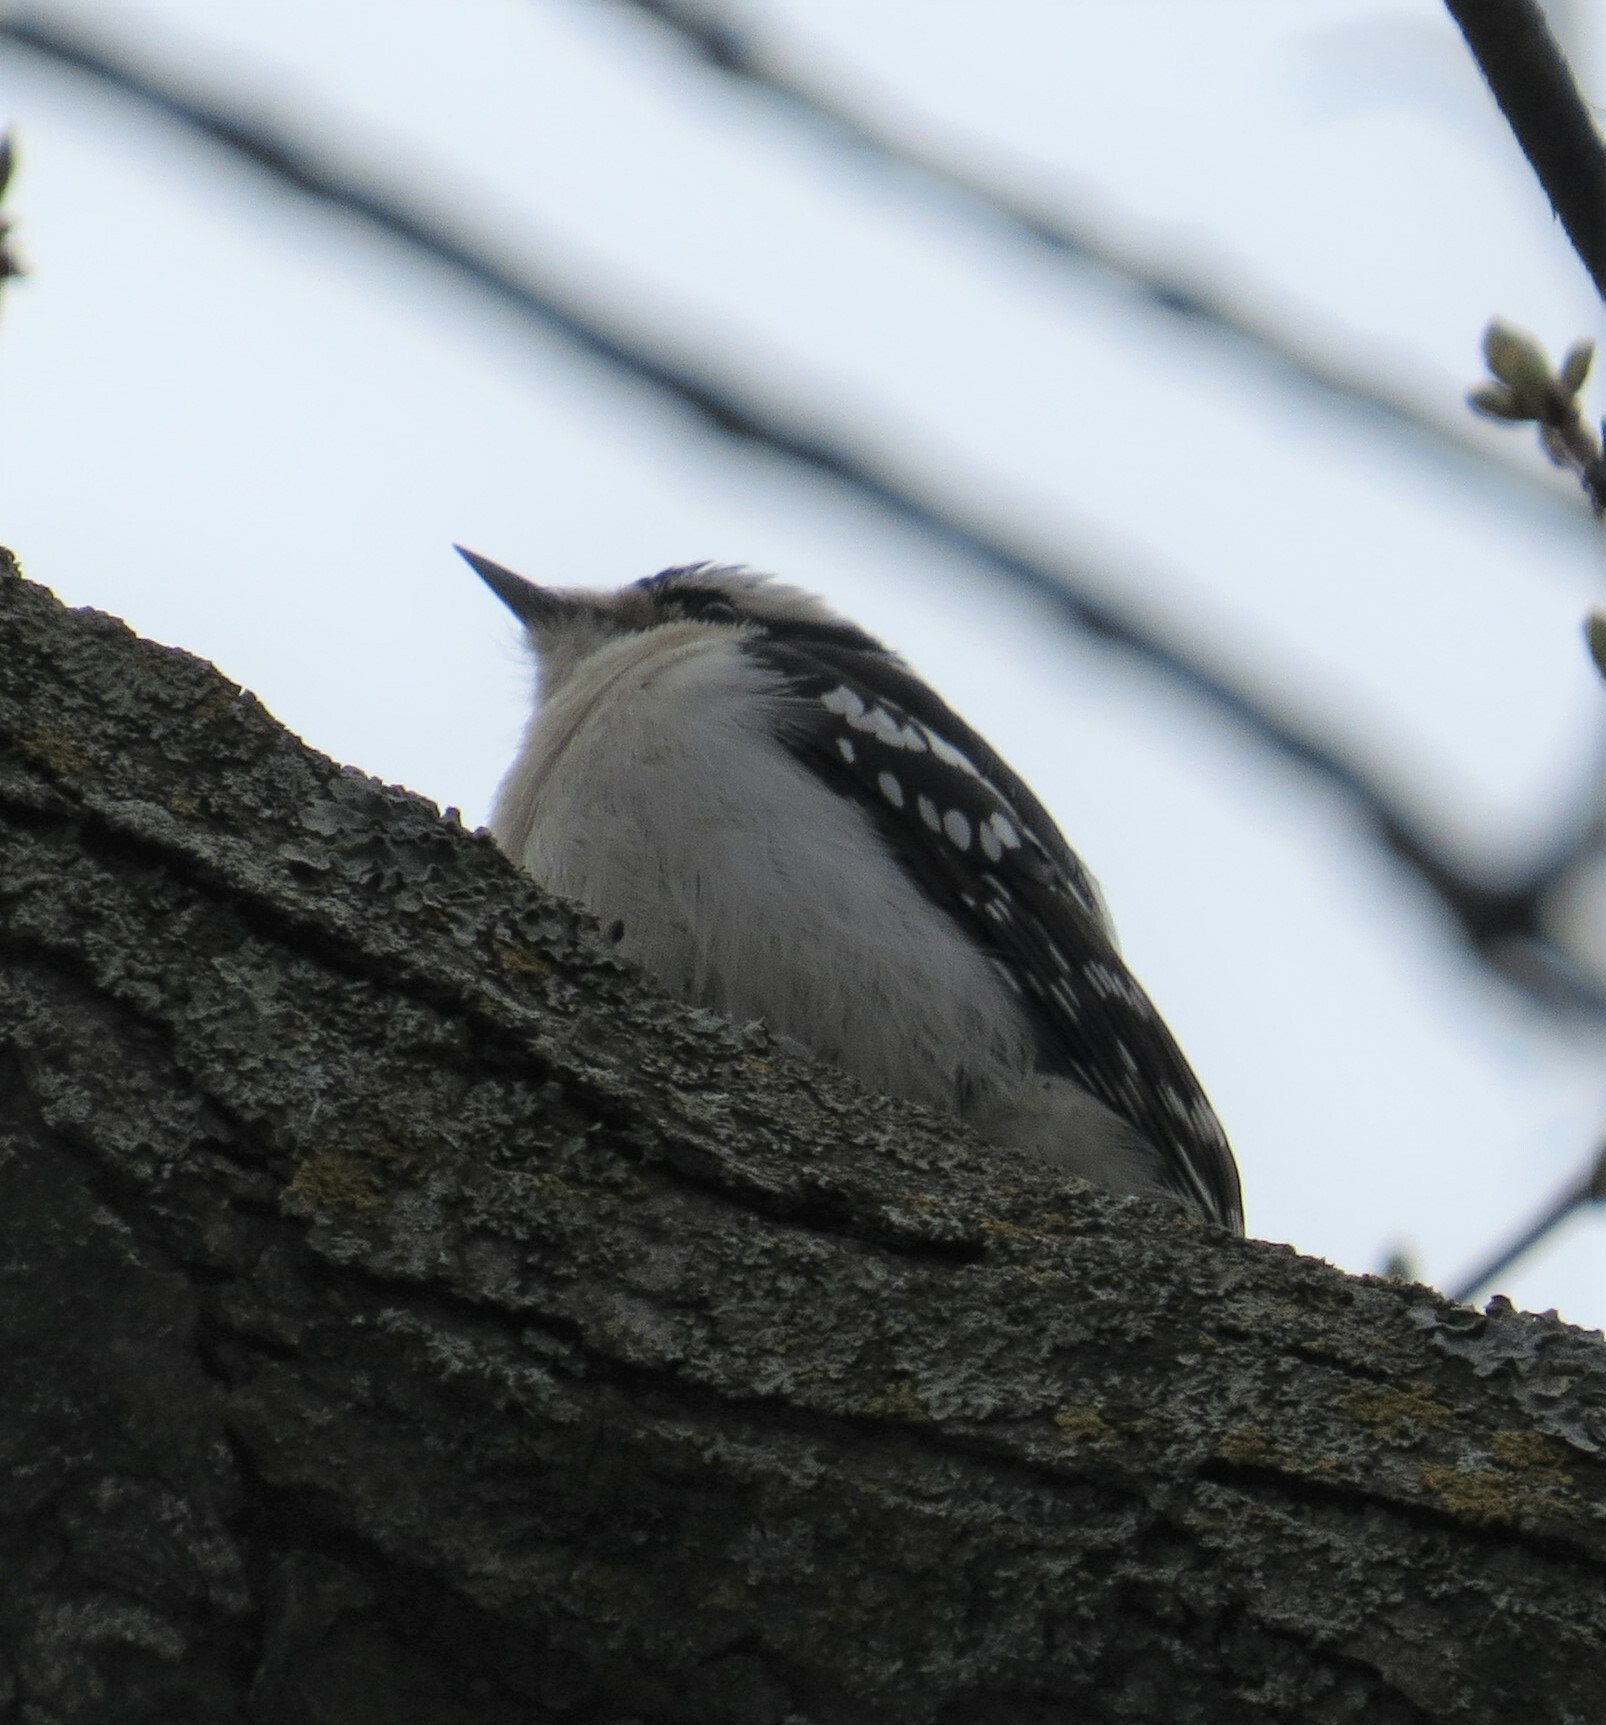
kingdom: Animalia
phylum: Chordata
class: Aves
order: Piciformes
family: Picidae
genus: Dryobates
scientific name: Dryobates pubescens
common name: Downy woodpecker
